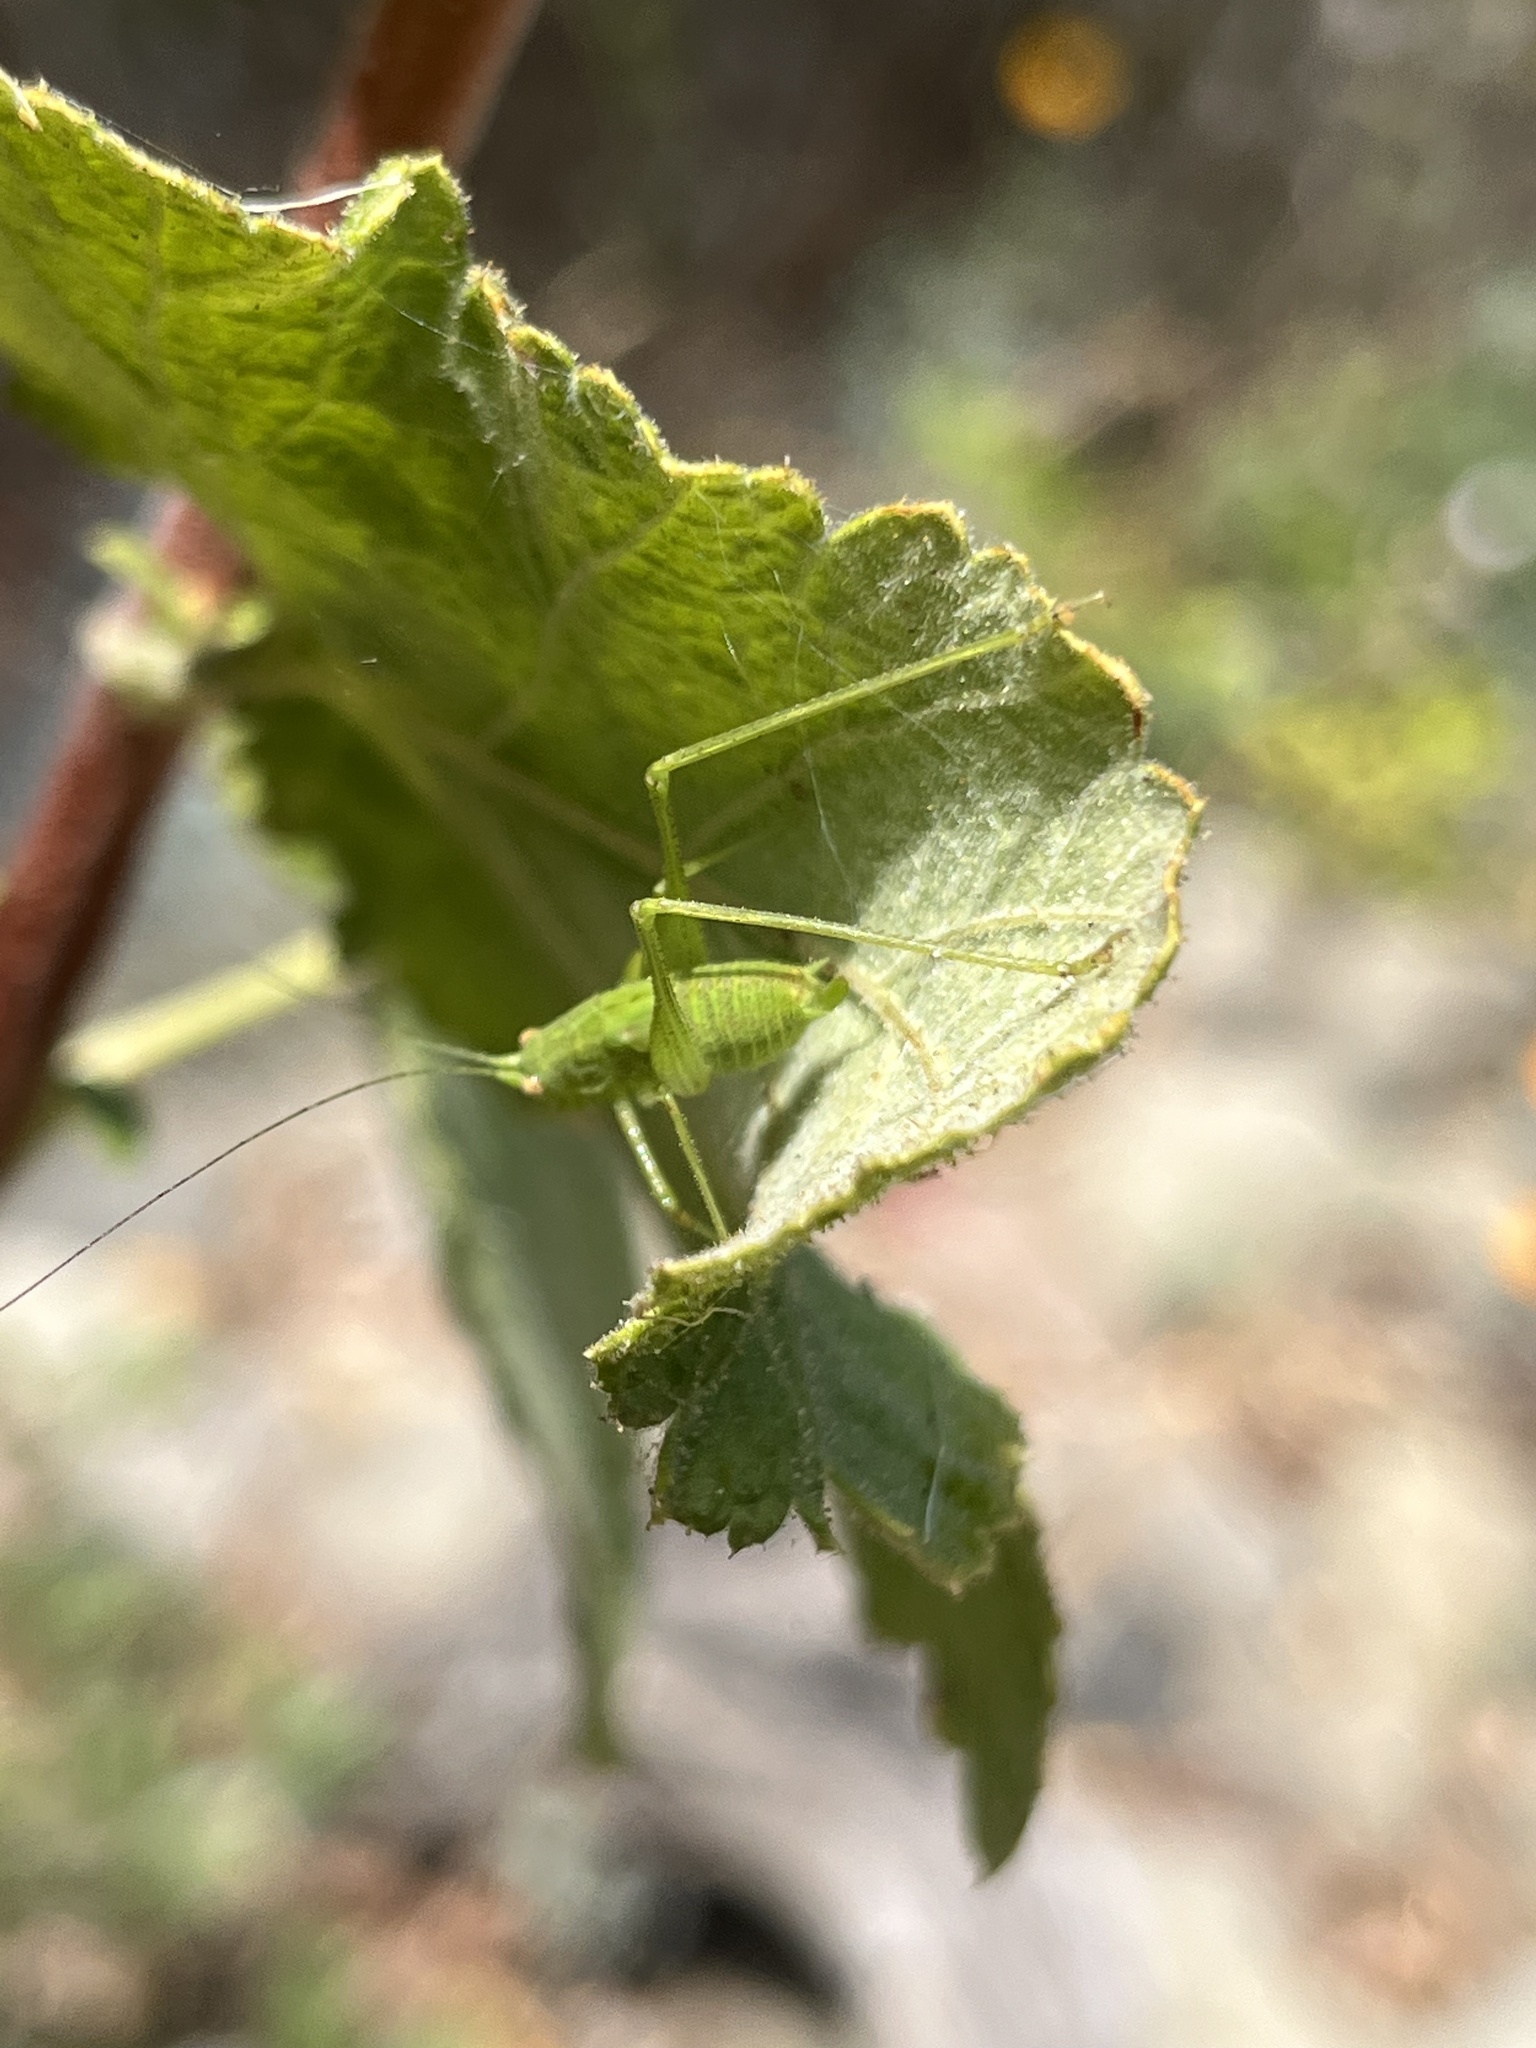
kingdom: Animalia
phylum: Arthropoda
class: Insecta
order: Orthoptera
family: Tettigoniidae
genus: Phaneroptera
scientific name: Phaneroptera nana
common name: Southern sickle bush-cricket
